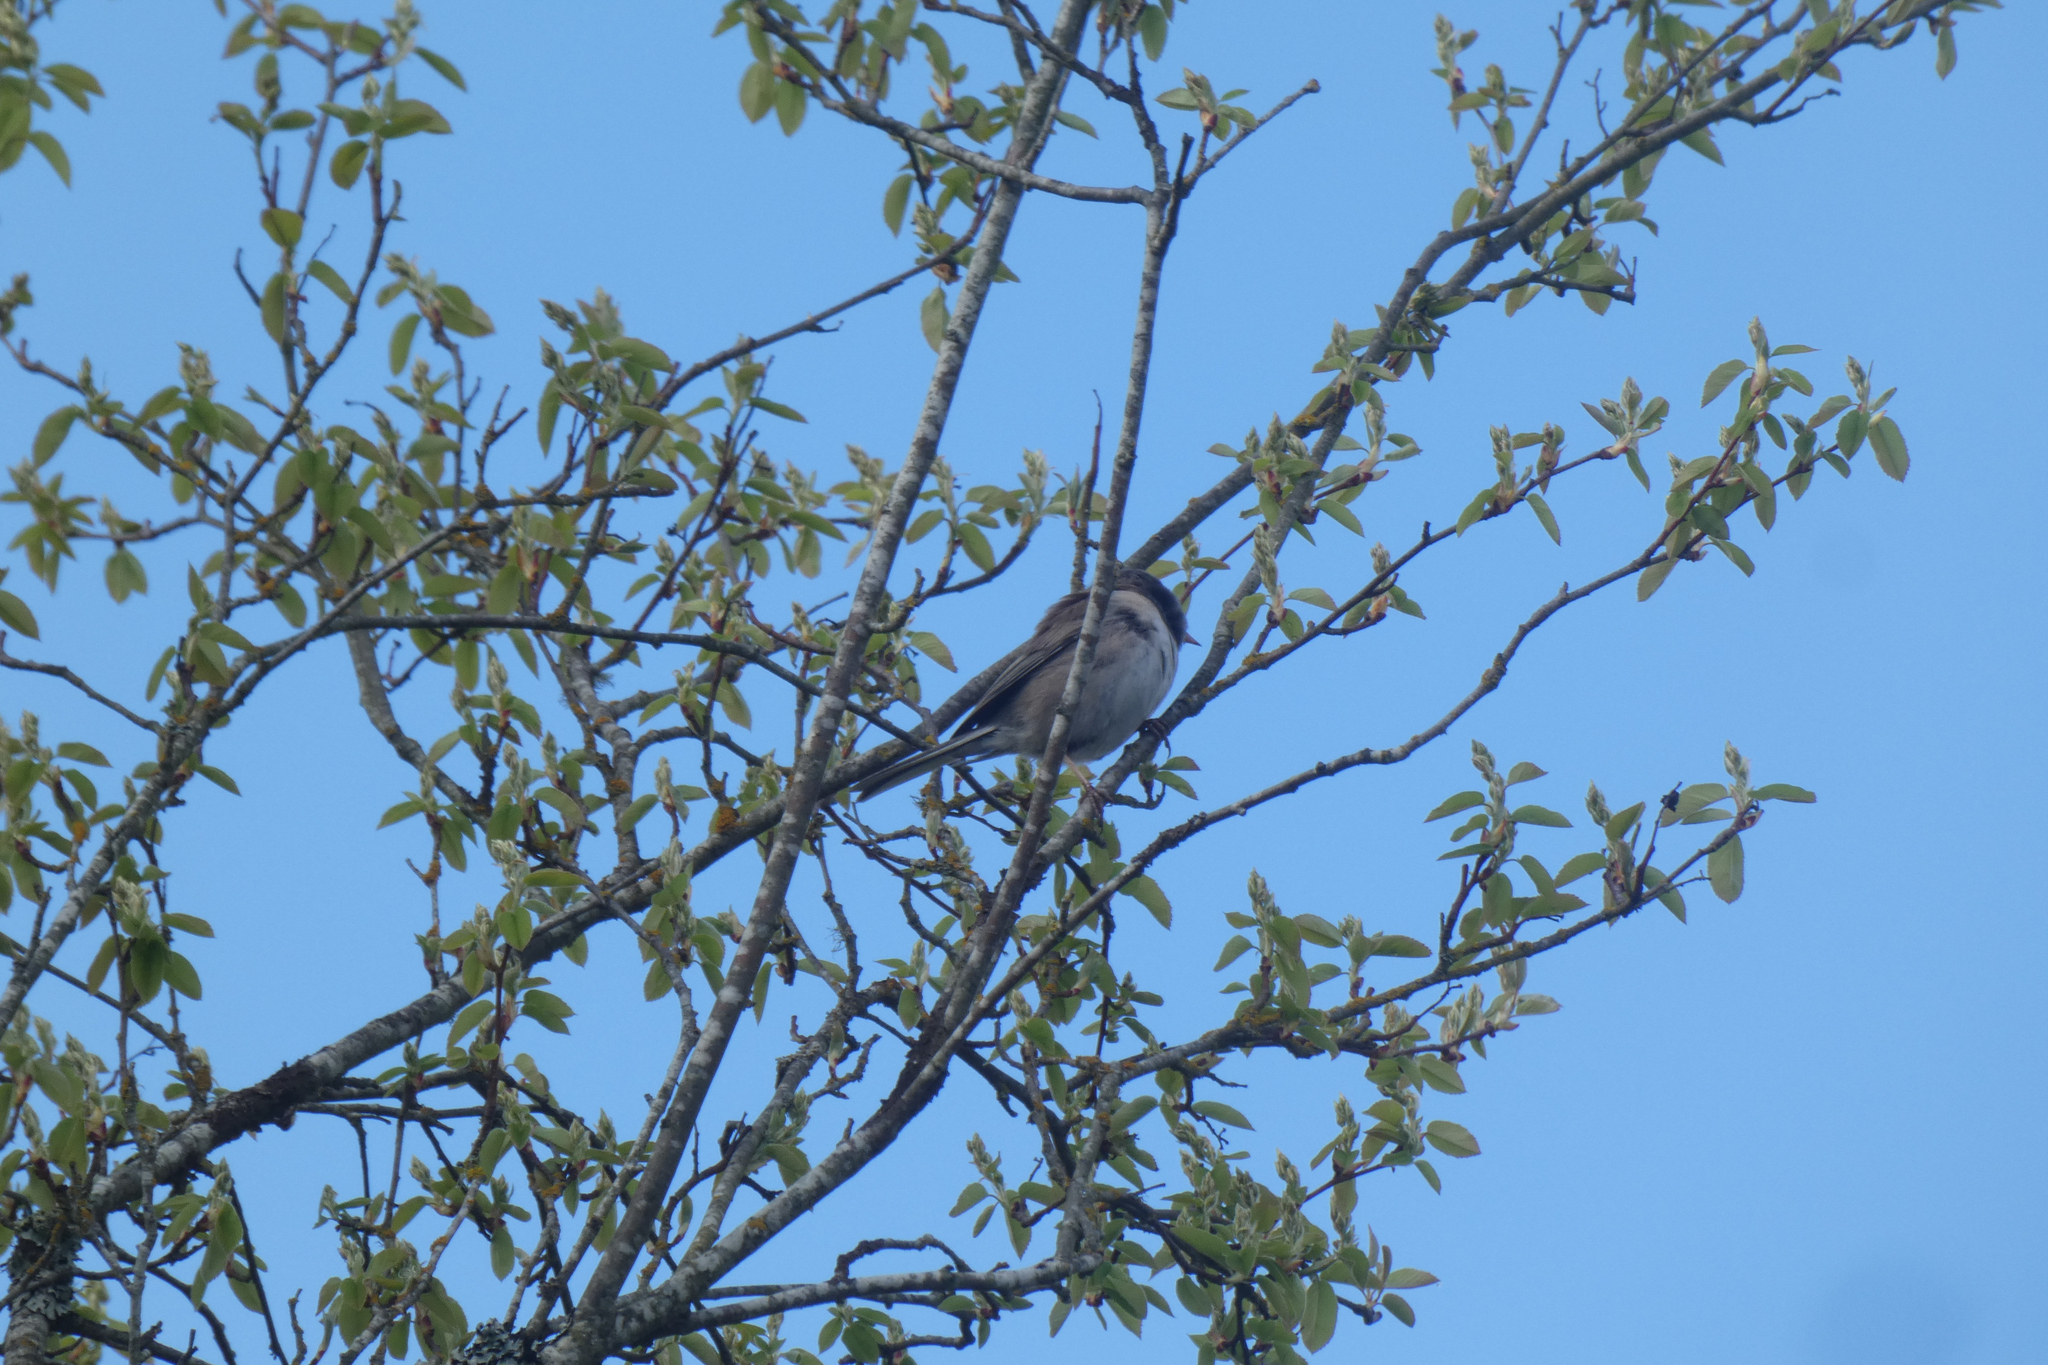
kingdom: Animalia
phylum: Chordata
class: Aves
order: Passeriformes
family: Passerellidae
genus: Junco
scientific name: Junco hyemalis
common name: Dark-eyed junco
